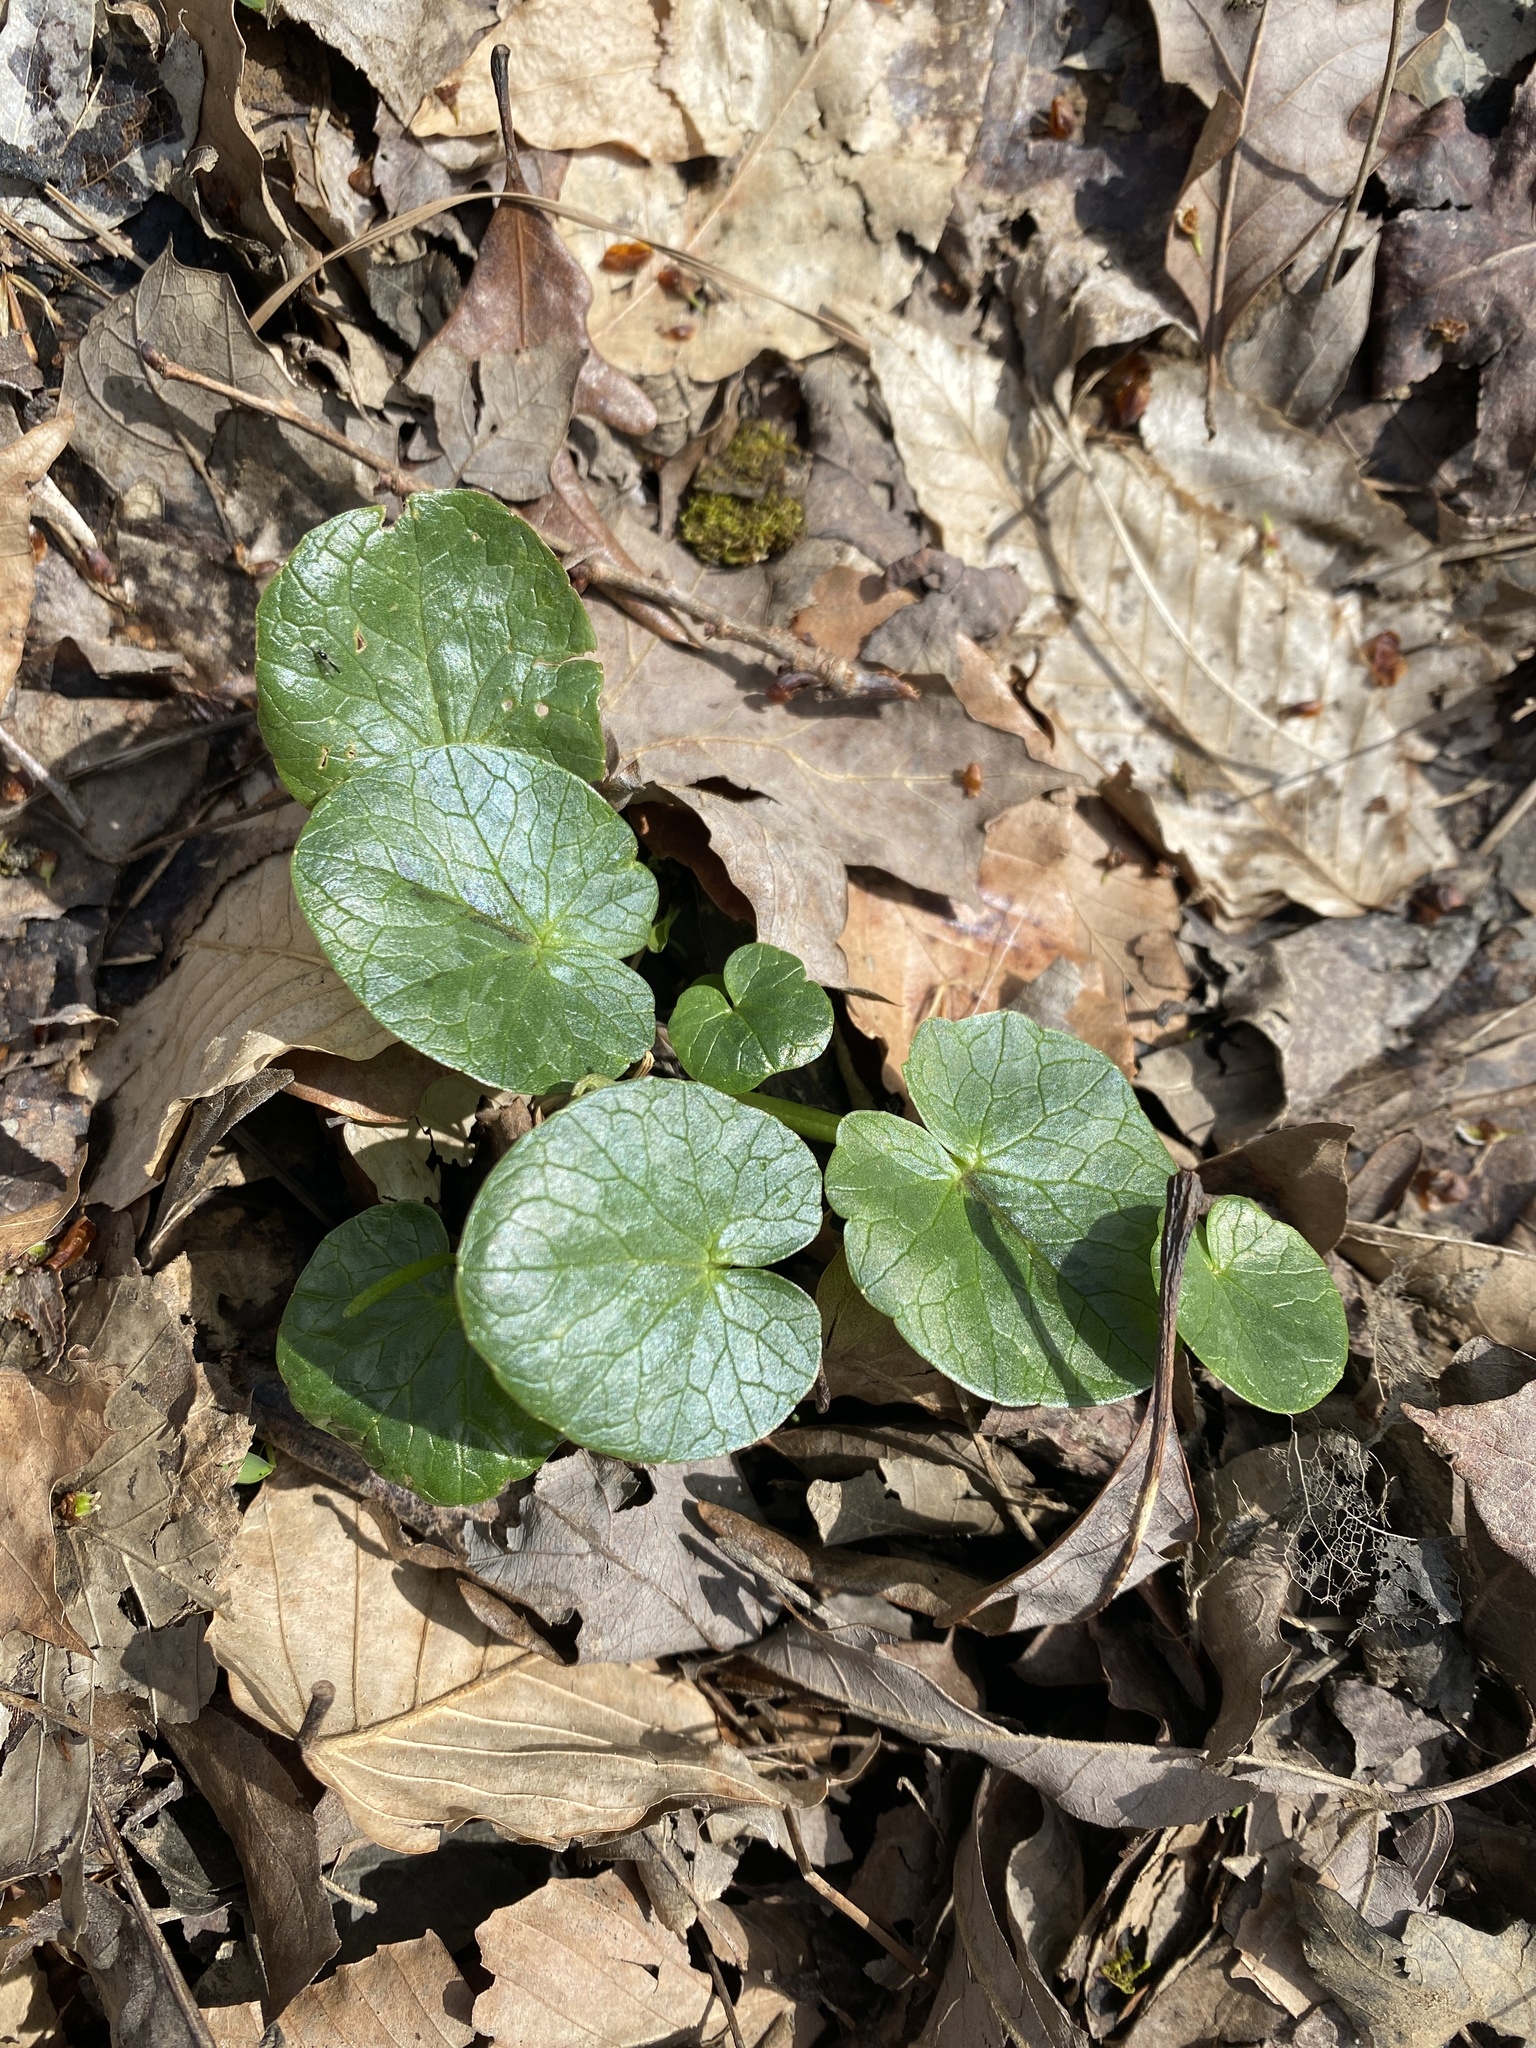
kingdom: Plantae
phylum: Tracheophyta
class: Magnoliopsida
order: Ranunculales
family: Ranunculaceae
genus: Ficaria
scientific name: Ficaria verna
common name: Lesser celandine
